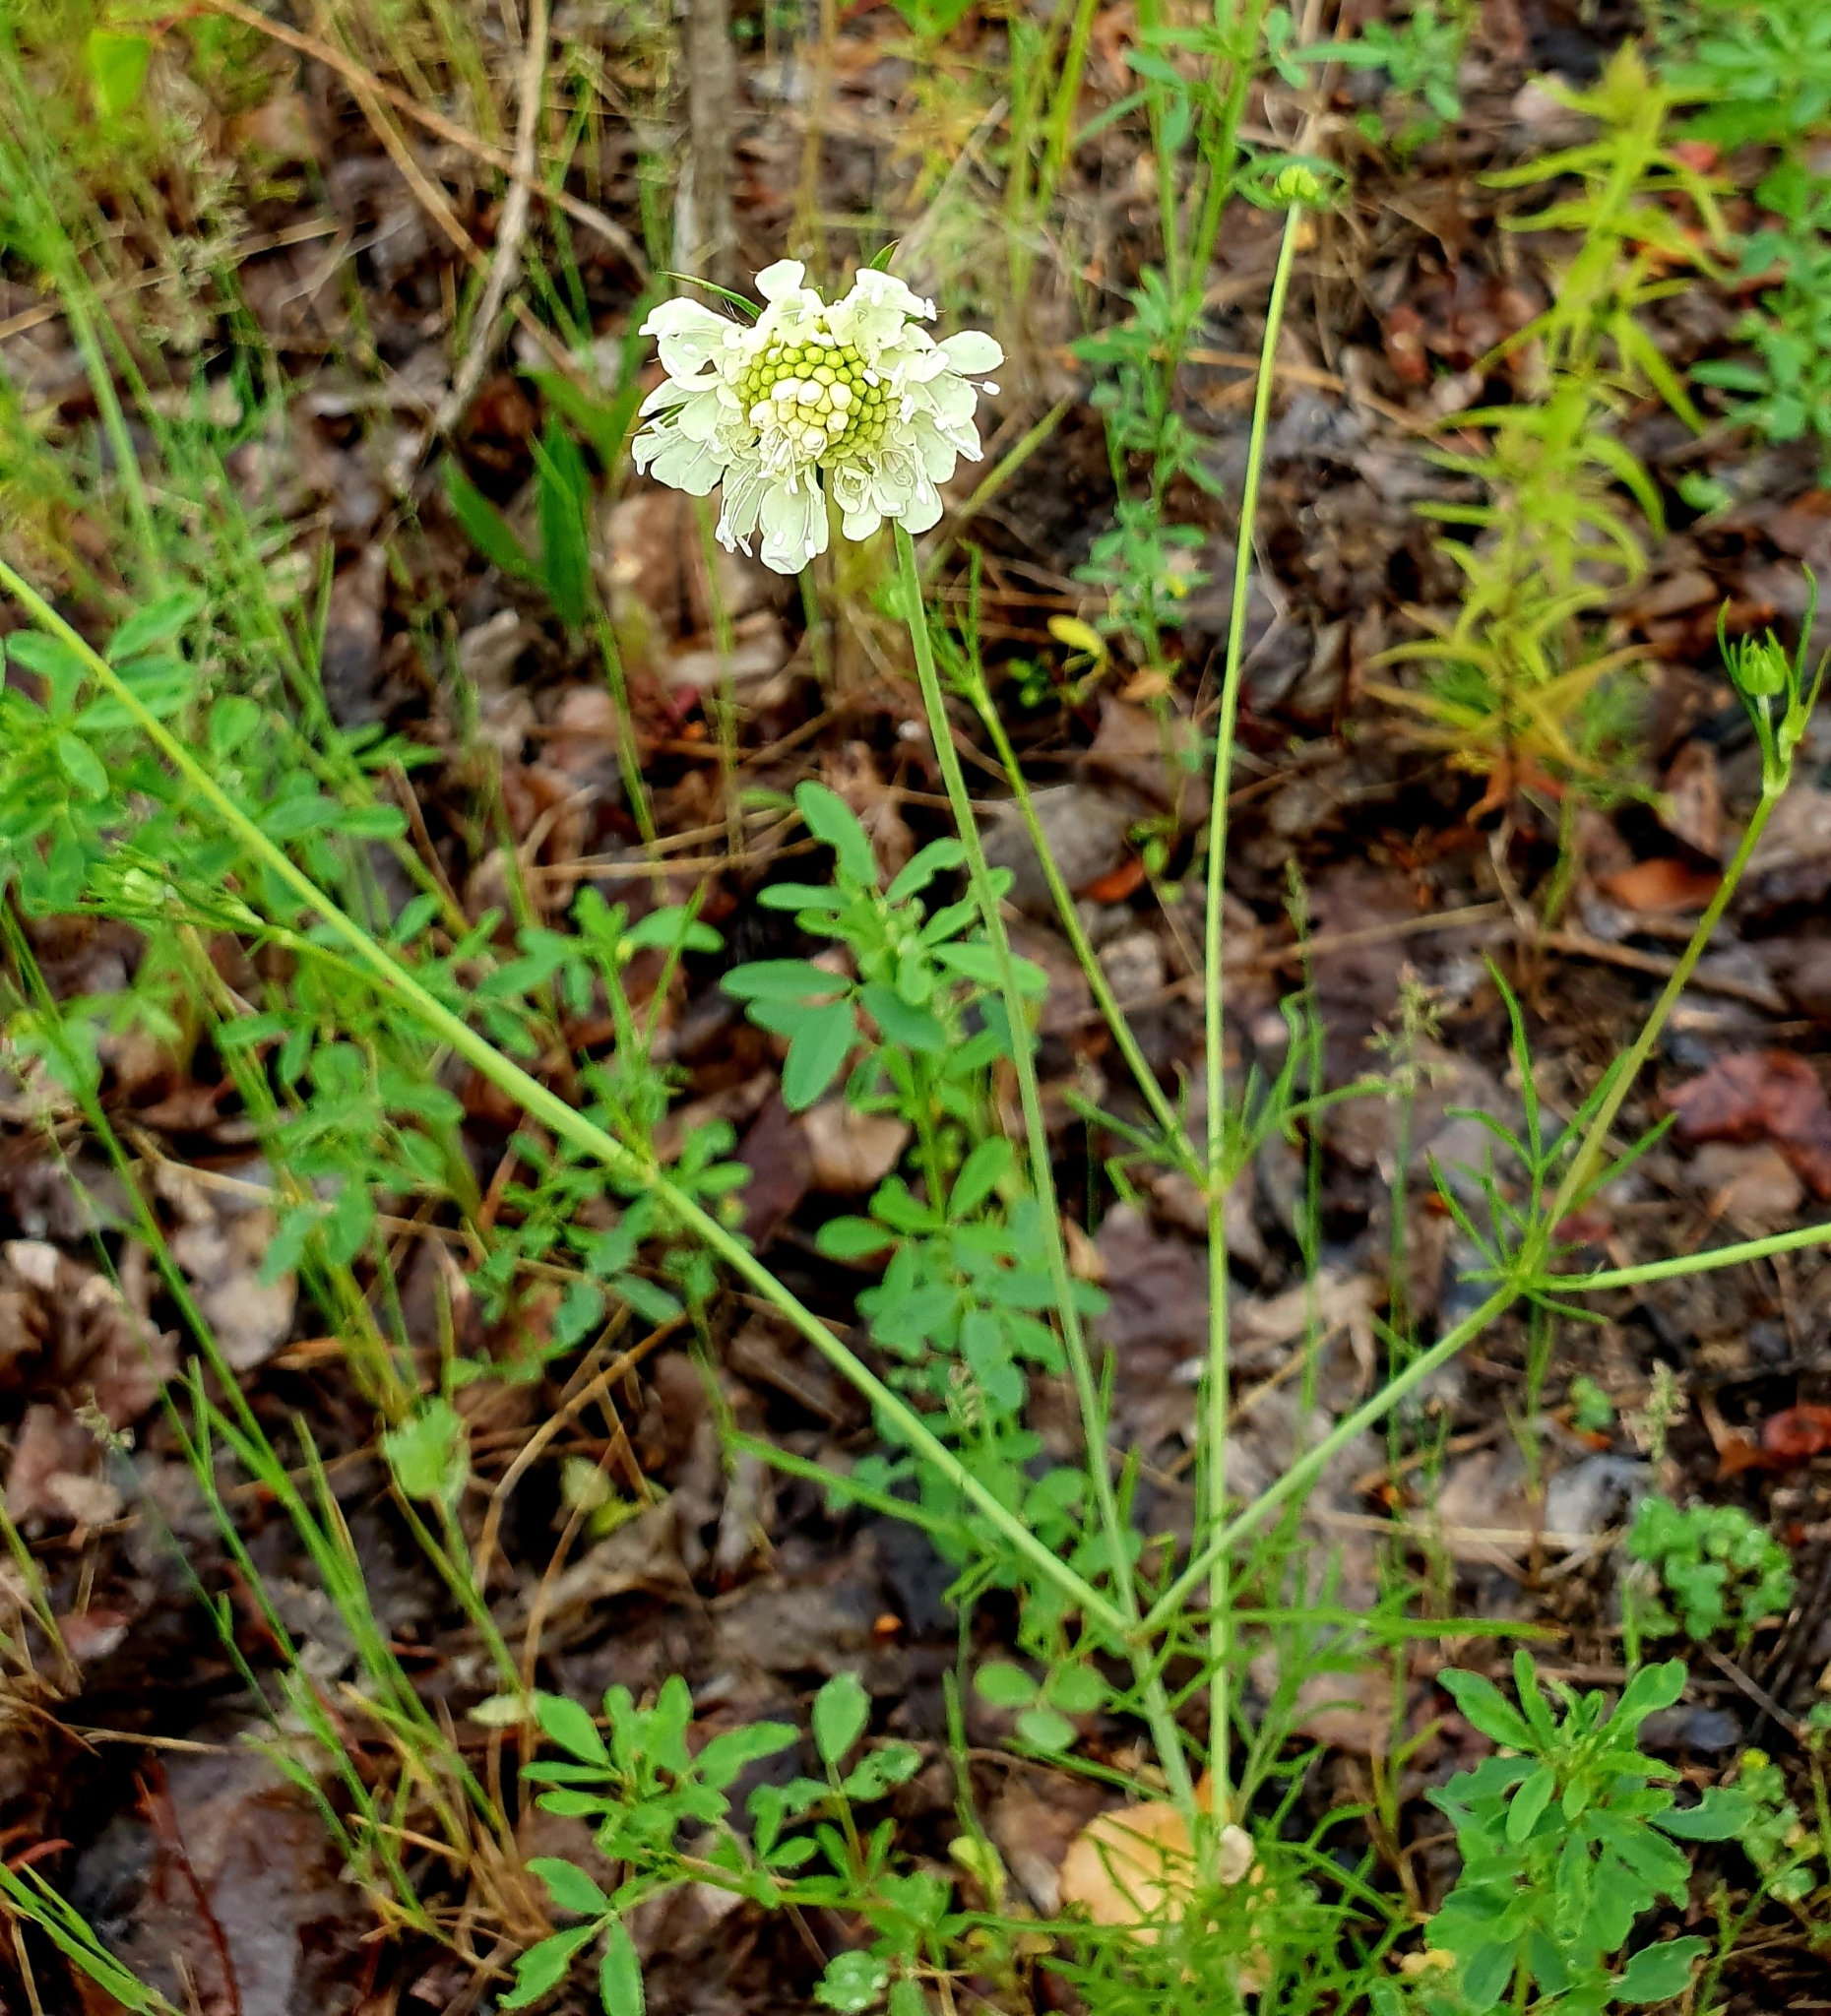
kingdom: Plantae
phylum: Tracheophyta
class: Magnoliopsida
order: Dipsacales
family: Caprifoliaceae
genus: Scabiosa
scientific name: Scabiosa ochroleuca
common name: Cream pincushions
